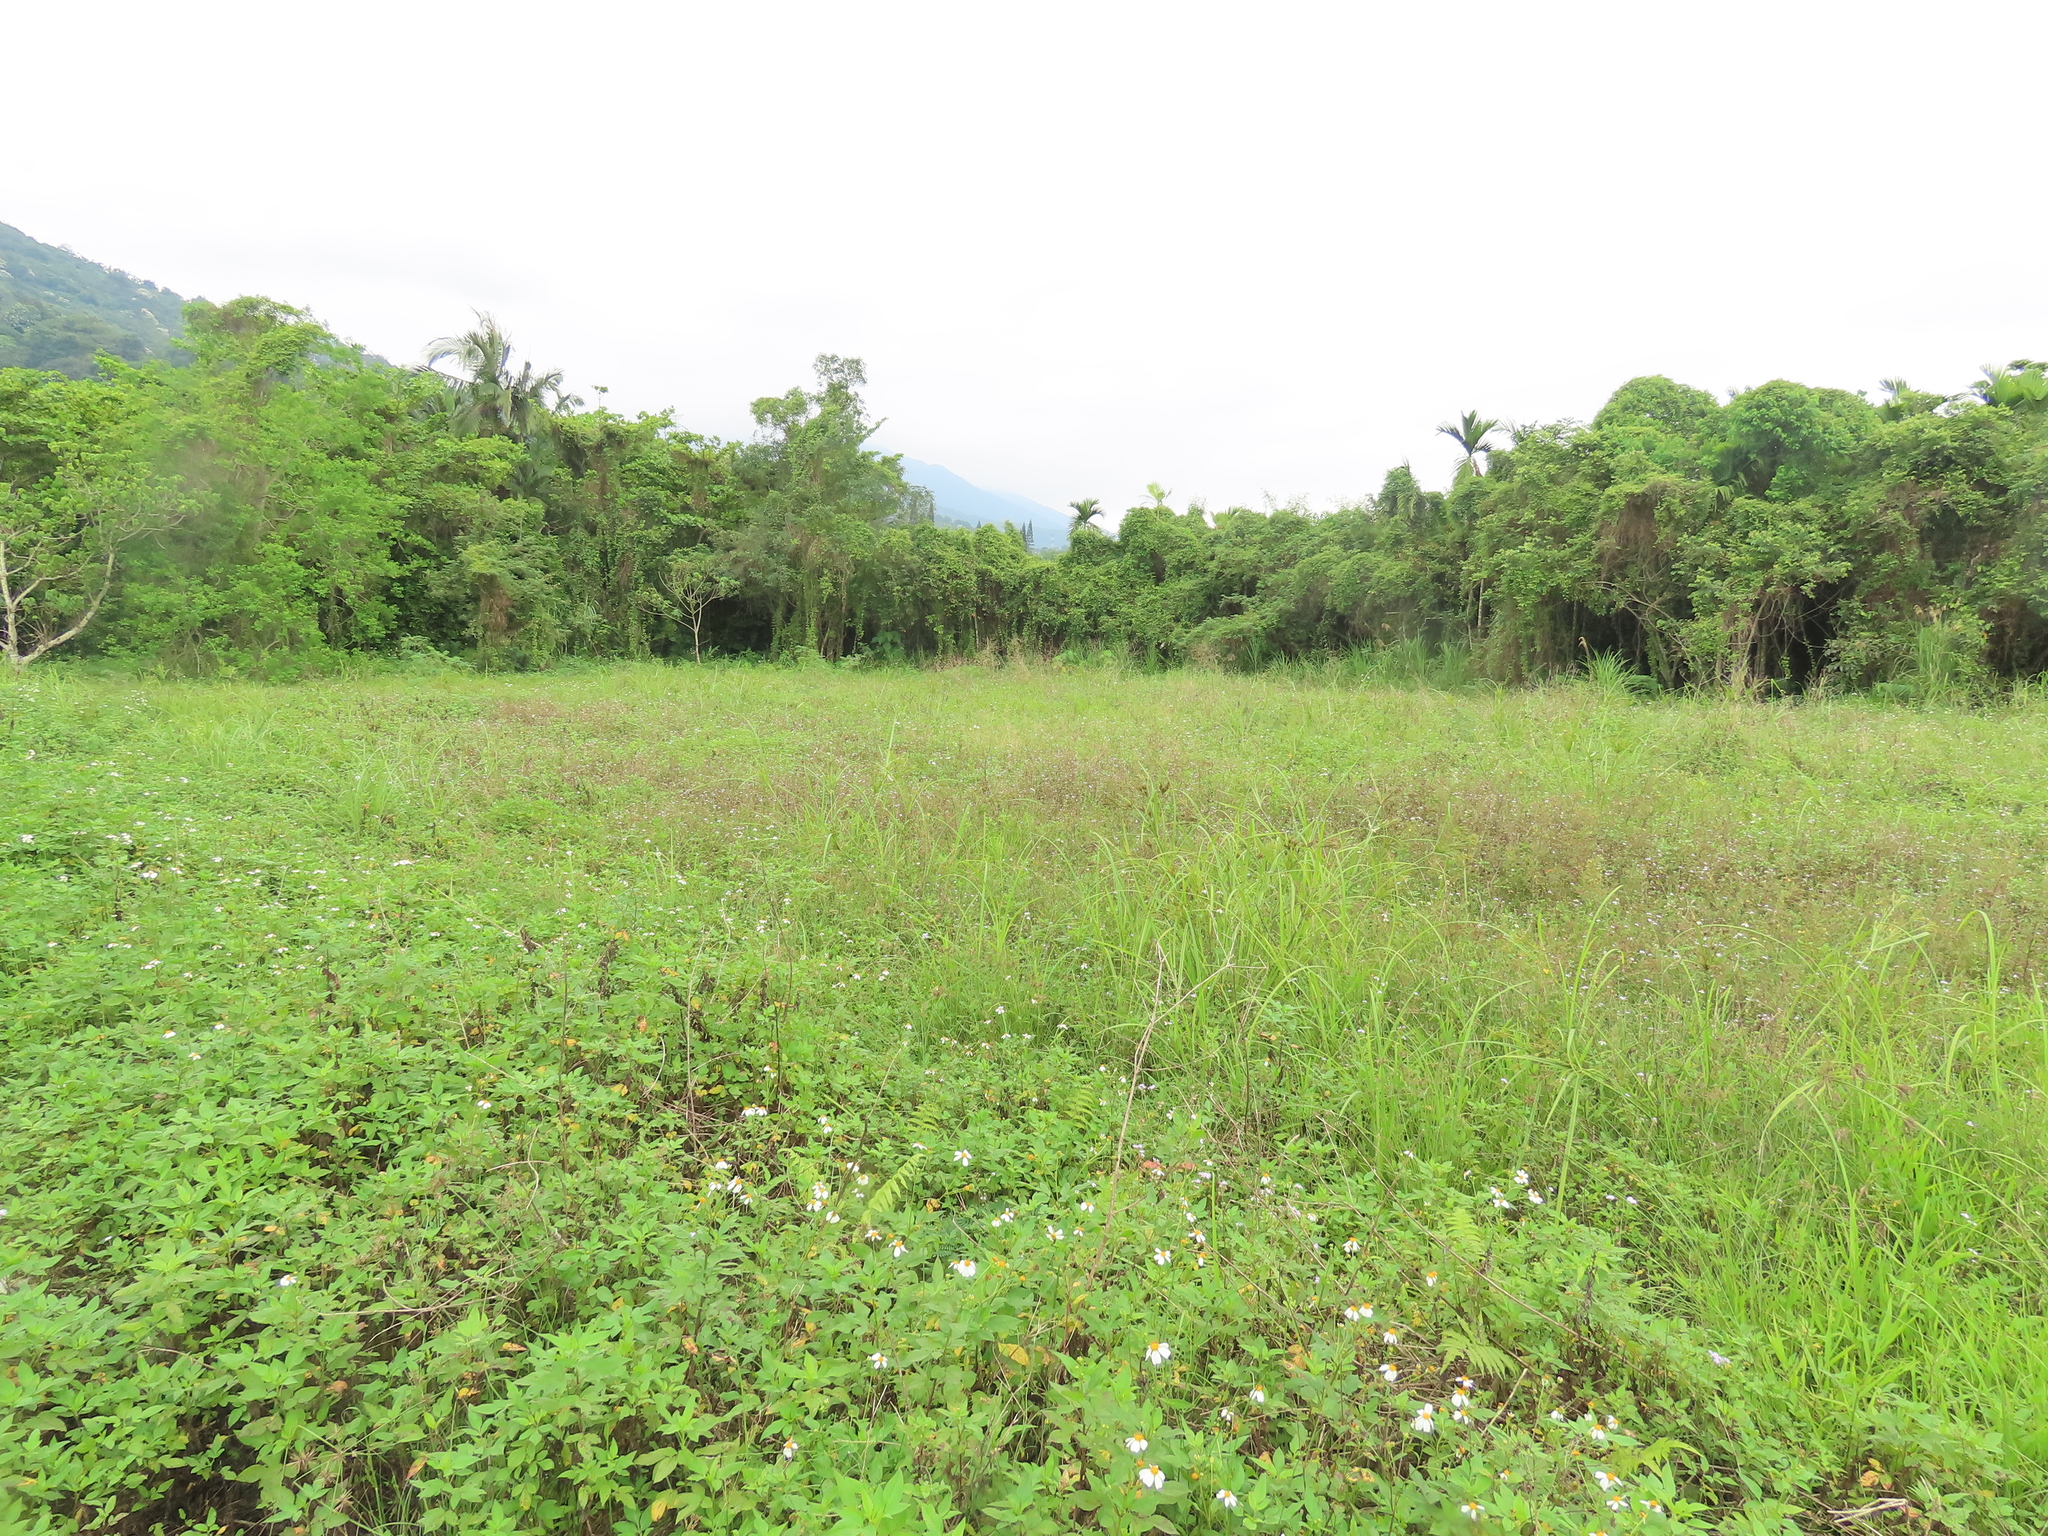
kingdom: Plantae
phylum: Tracheophyta
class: Liliopsida
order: Poales
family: Cyperaceae
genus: Cyperus
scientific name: Cyperus nutans
